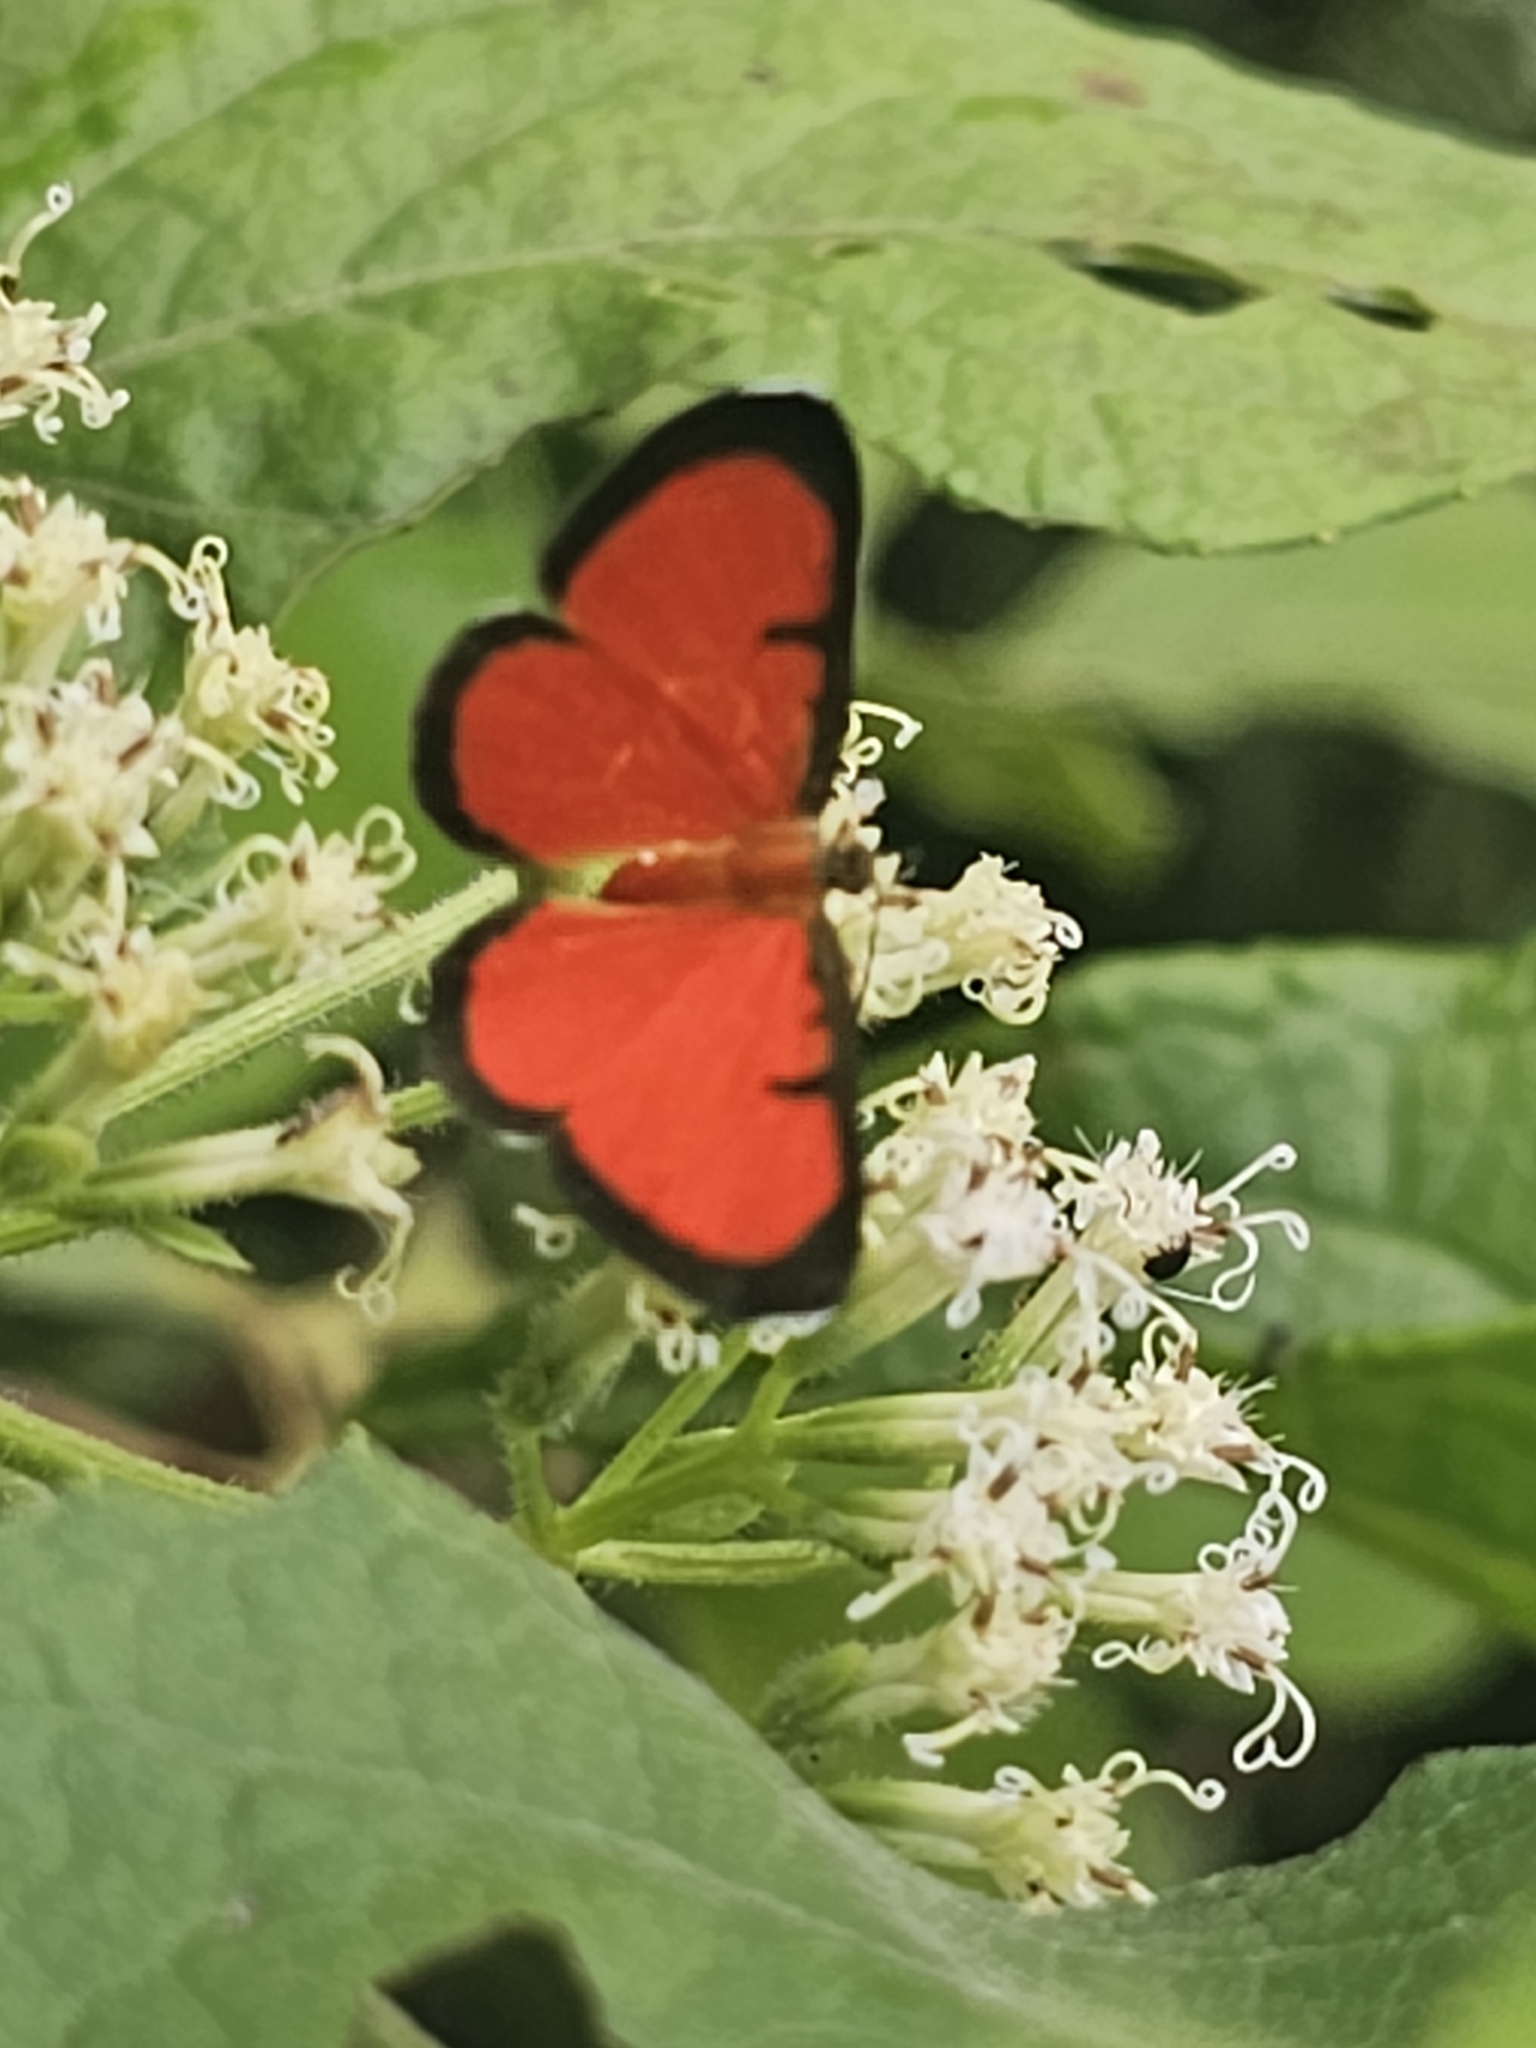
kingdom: Animalia
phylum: Arthropoda
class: Insecta
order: Lepidoptera
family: Lycaenidae
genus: Mesene
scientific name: Mesene phareus
